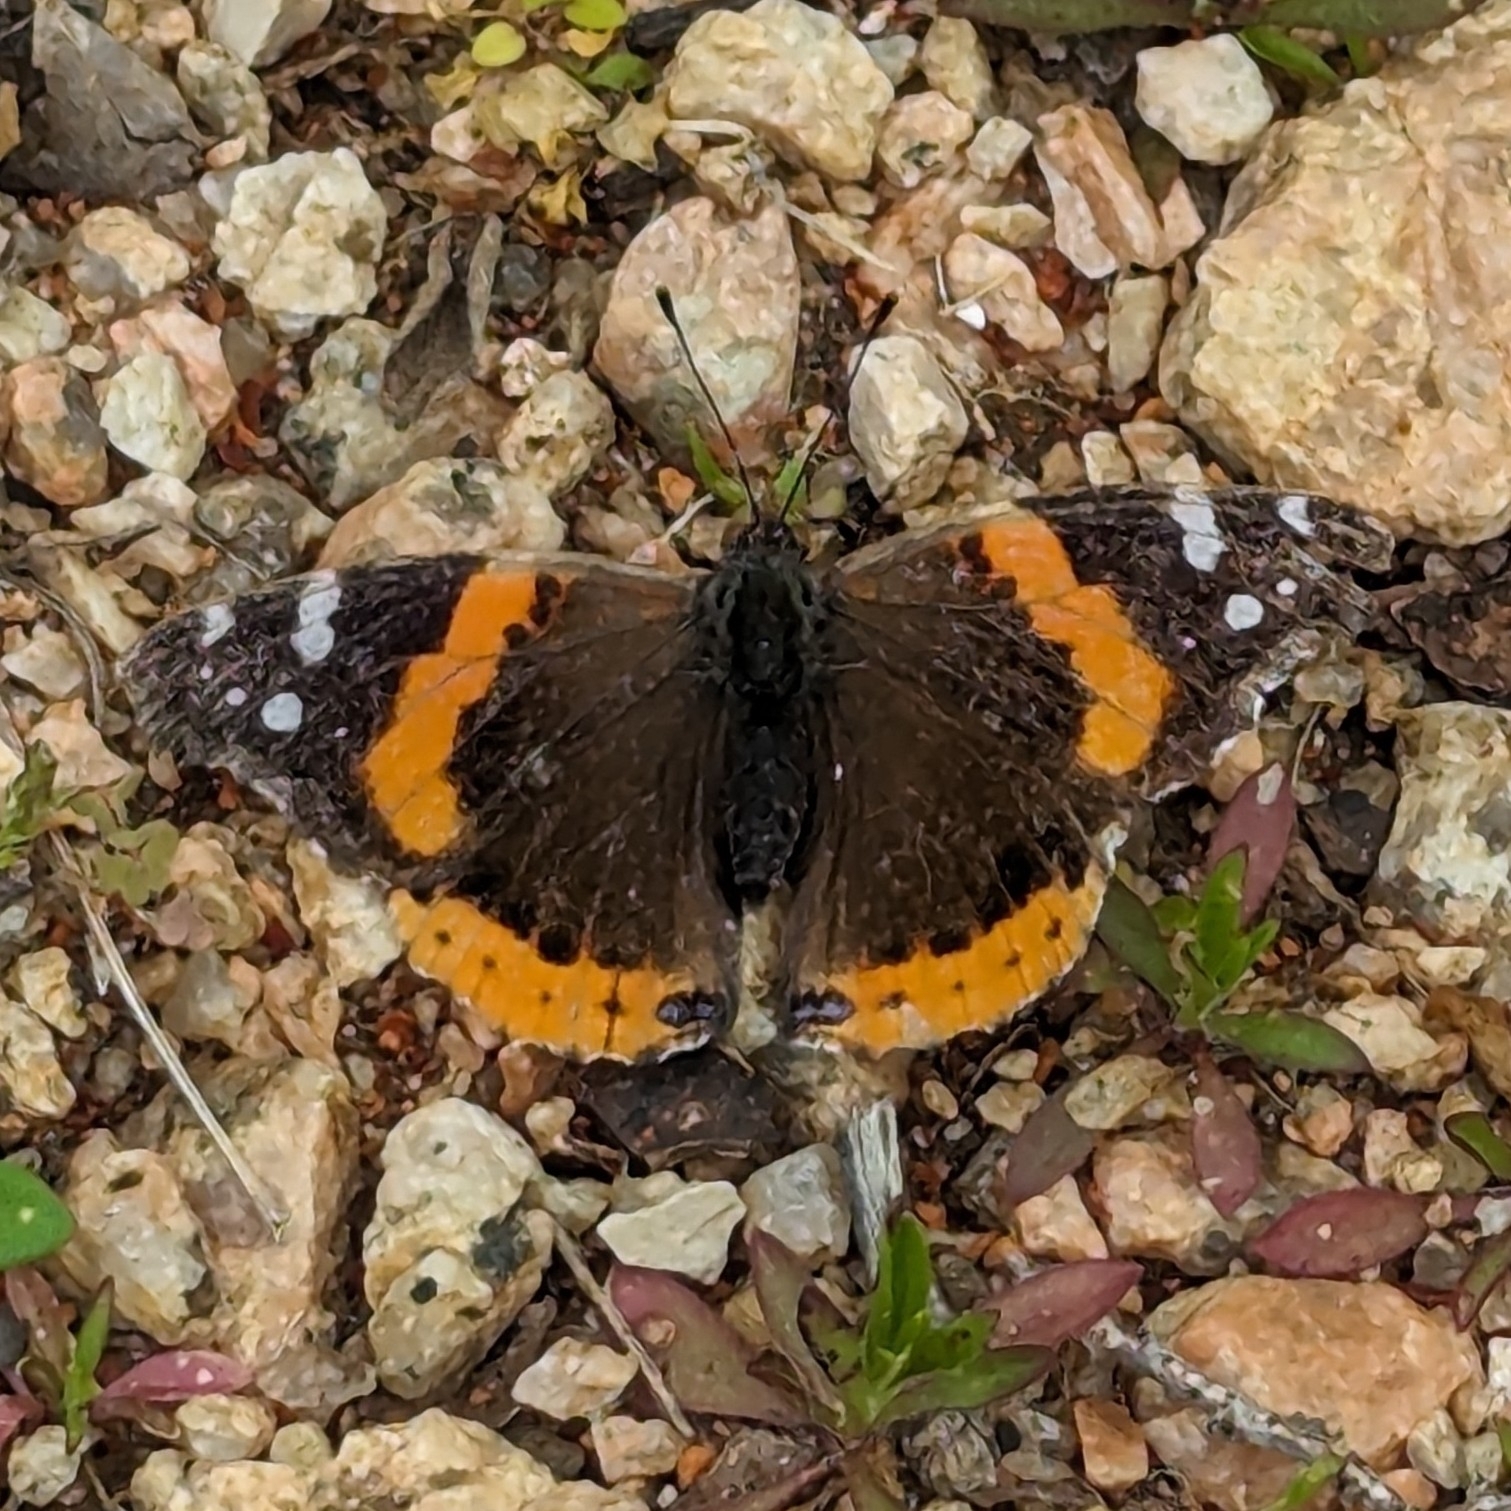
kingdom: Animalia
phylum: Arthropoda
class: Insecta
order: Lepidoptera
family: Nymphalidae
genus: Vanessa
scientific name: Vanessa atalanta
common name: Red admiral
